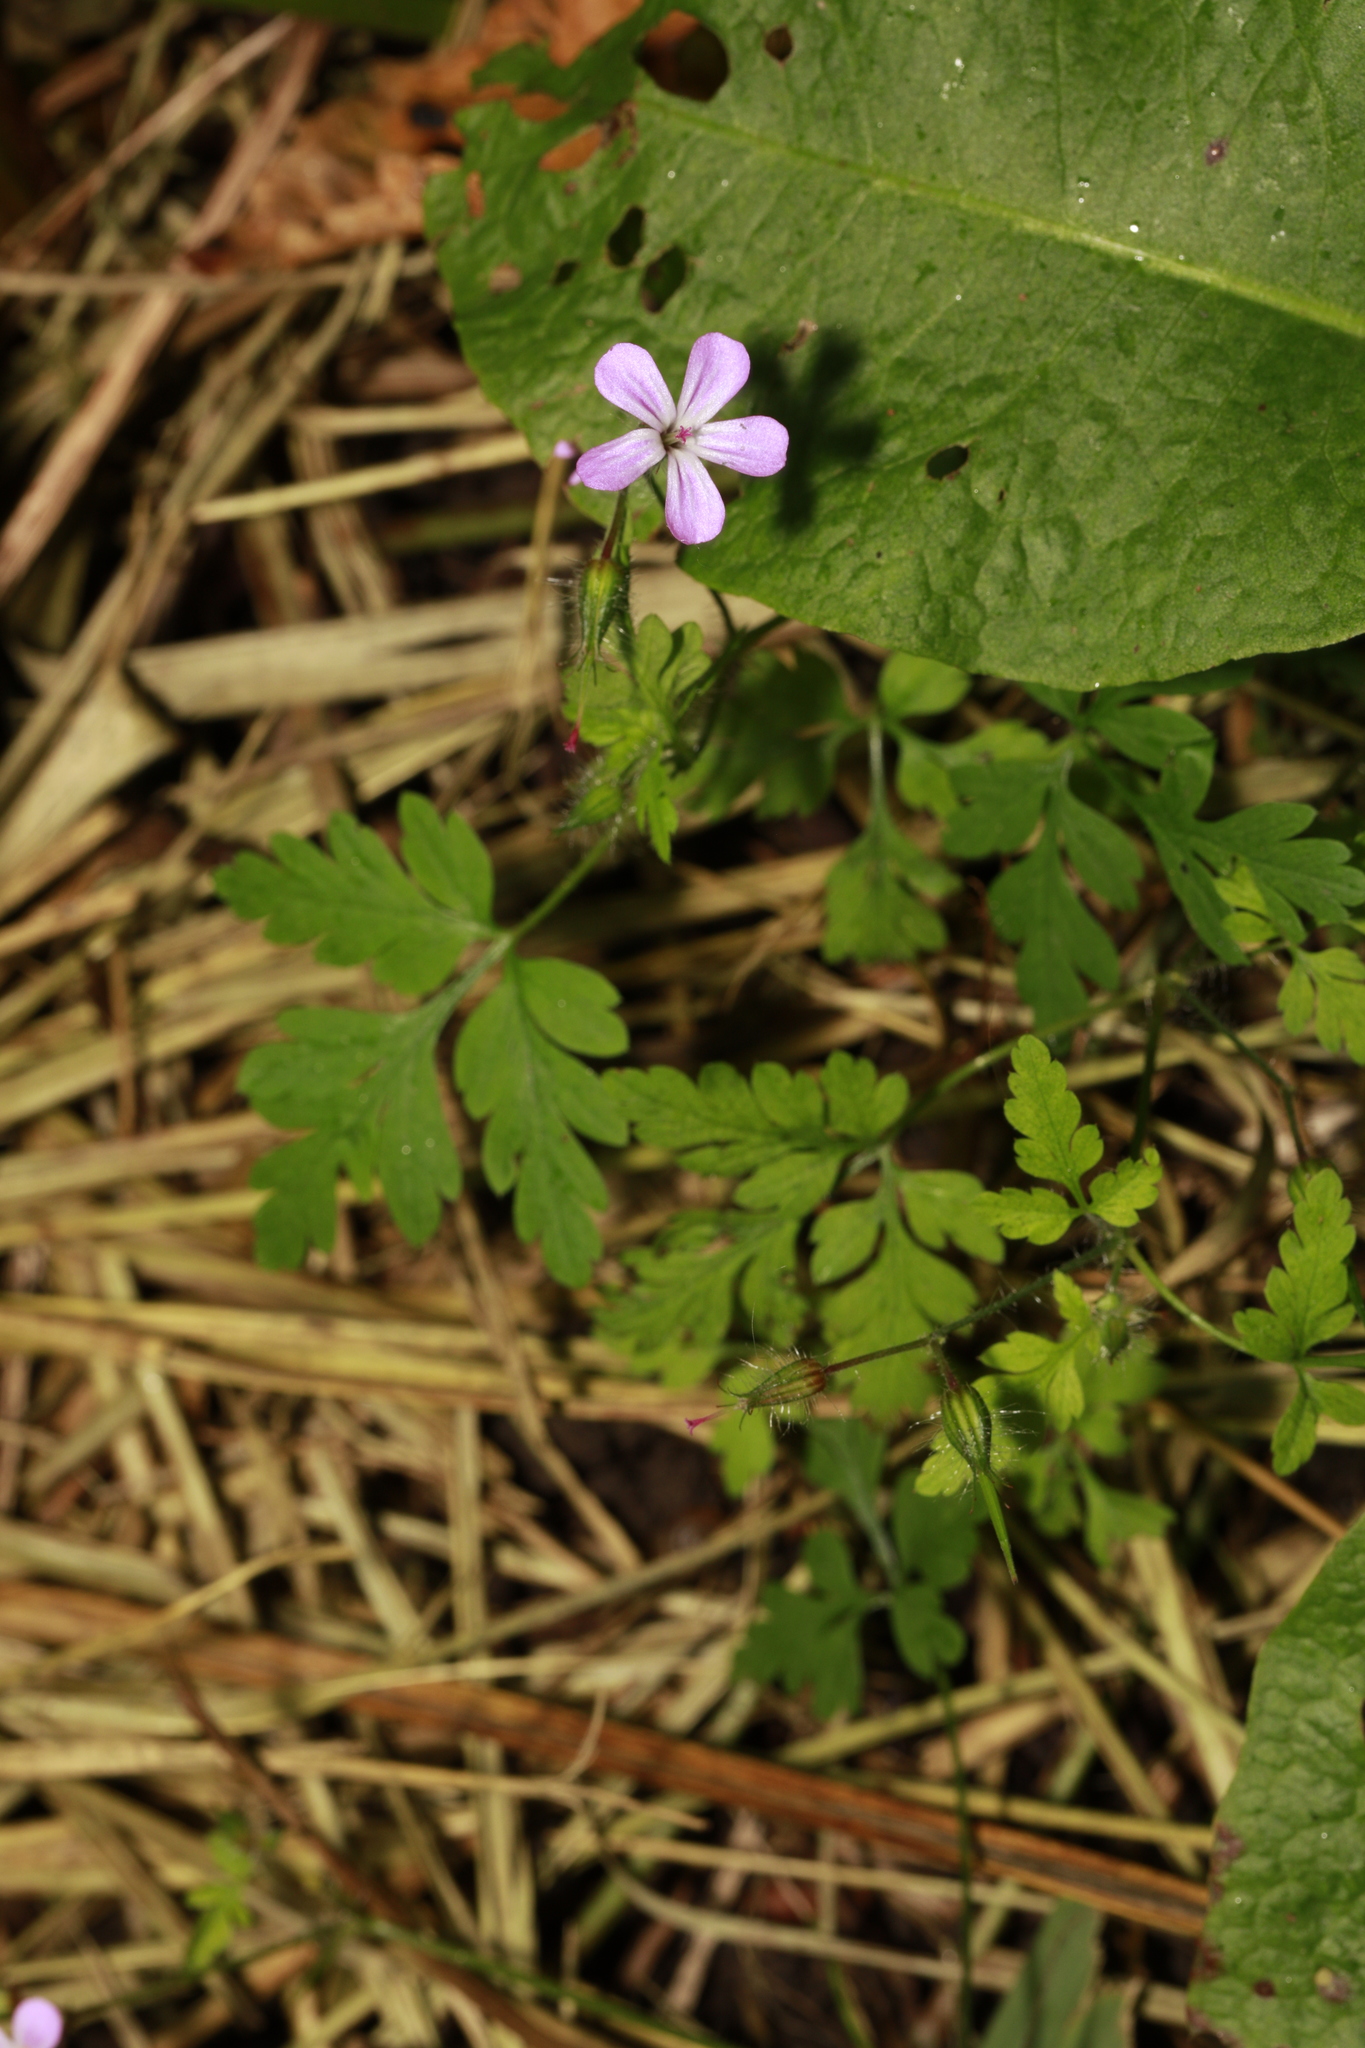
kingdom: Plantae
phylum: Tracheophyta
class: Magnoliopsida
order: Geraniales
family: Geraniaceae
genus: Geranium
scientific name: Geranium robertianum
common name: Herb-robert
